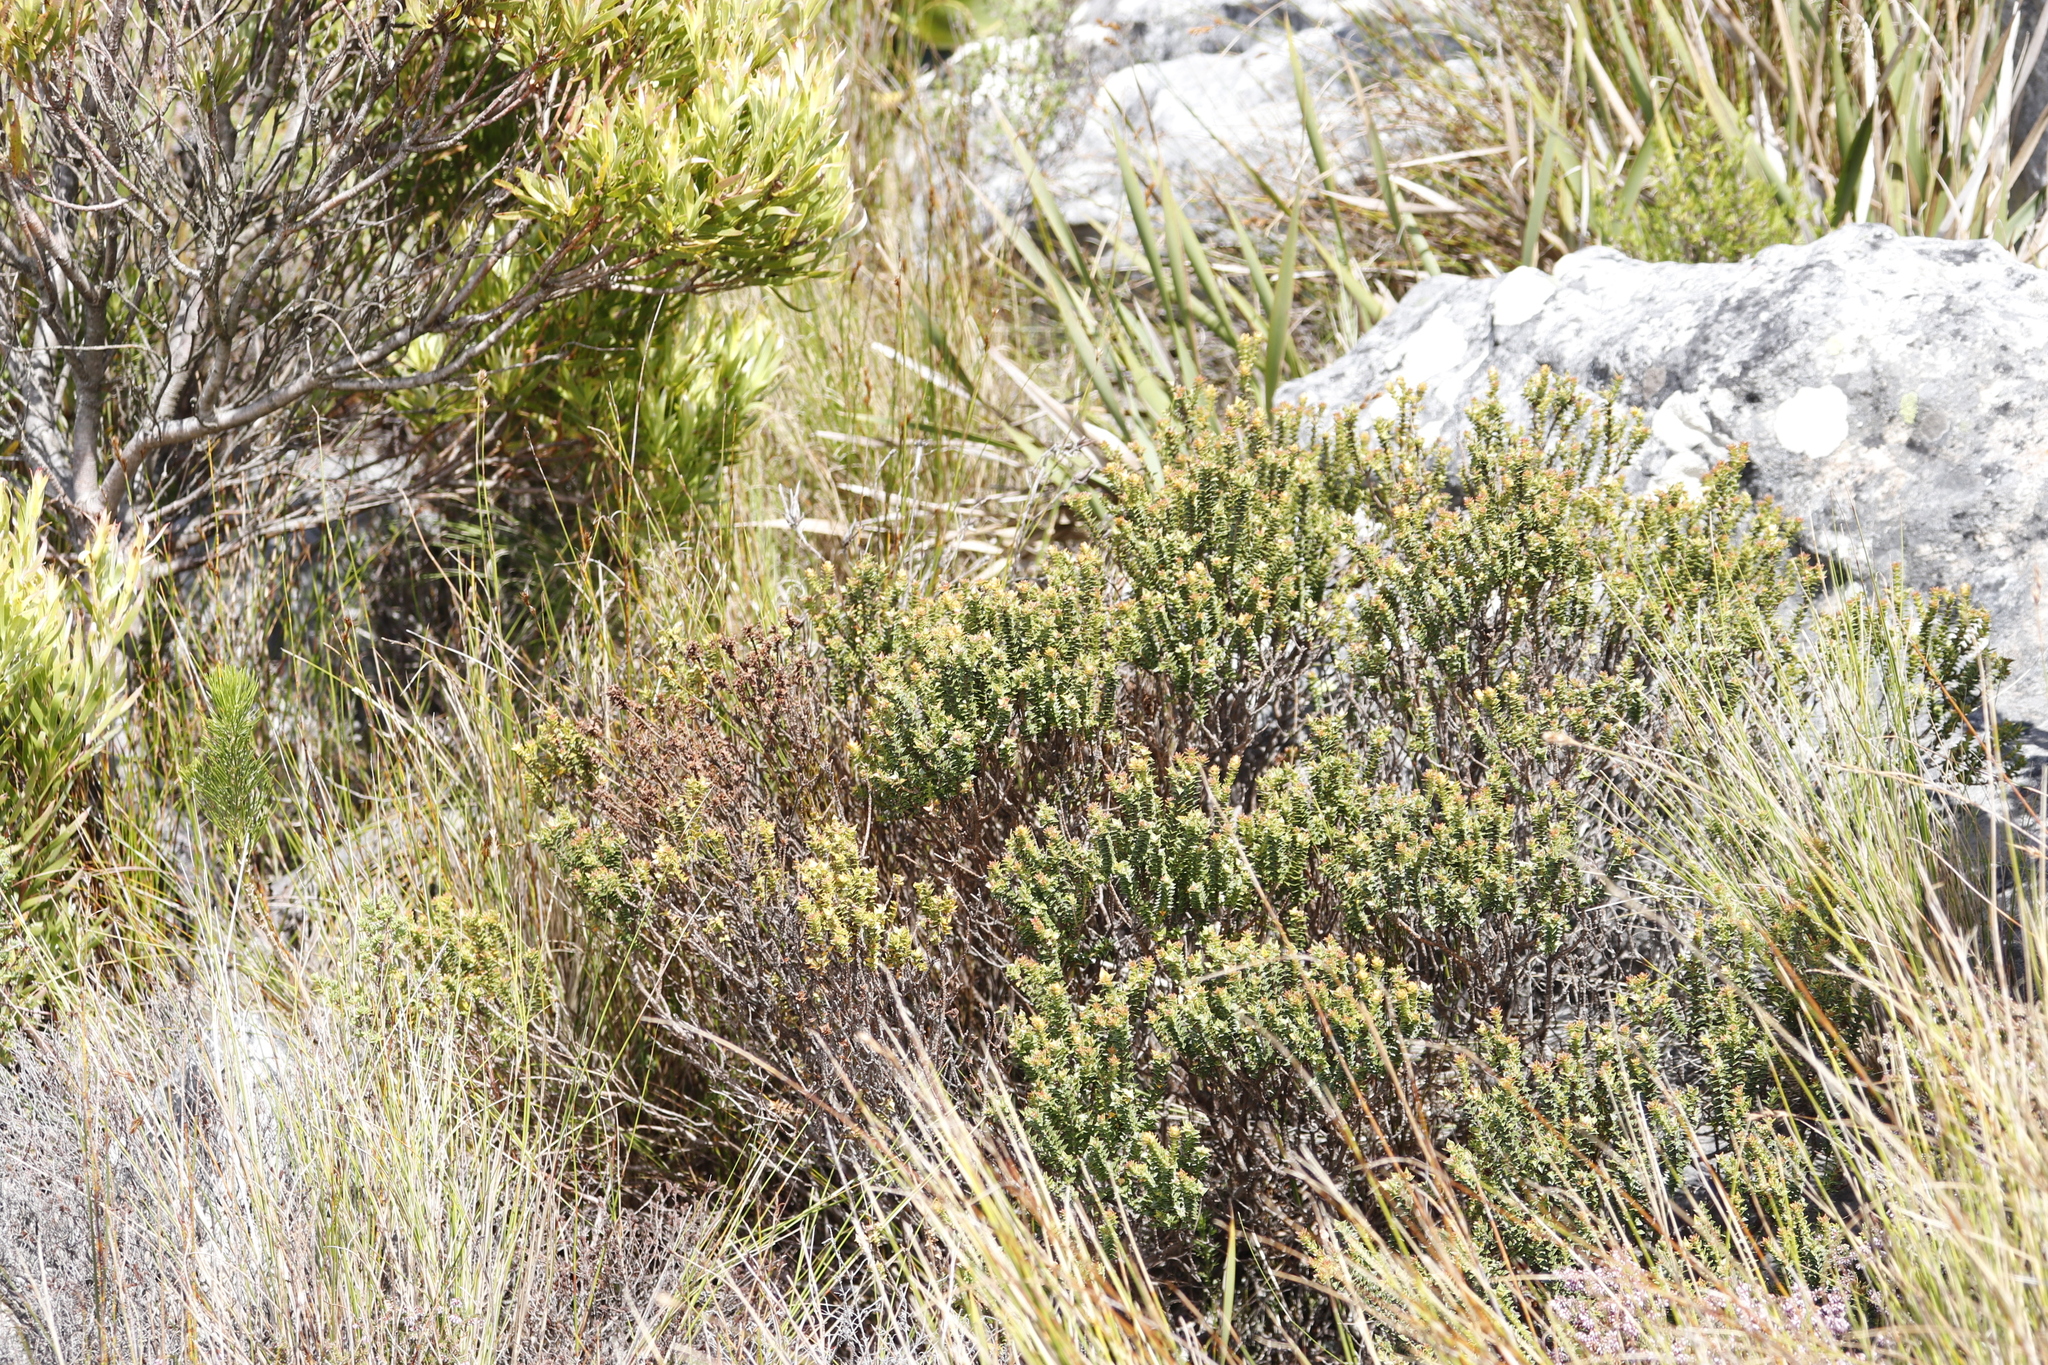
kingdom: Plantae
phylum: Tracheophyta
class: Magnoliopsida
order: Myrtales
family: Penaeaceae
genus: Penaea
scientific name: Penaea mucronata
